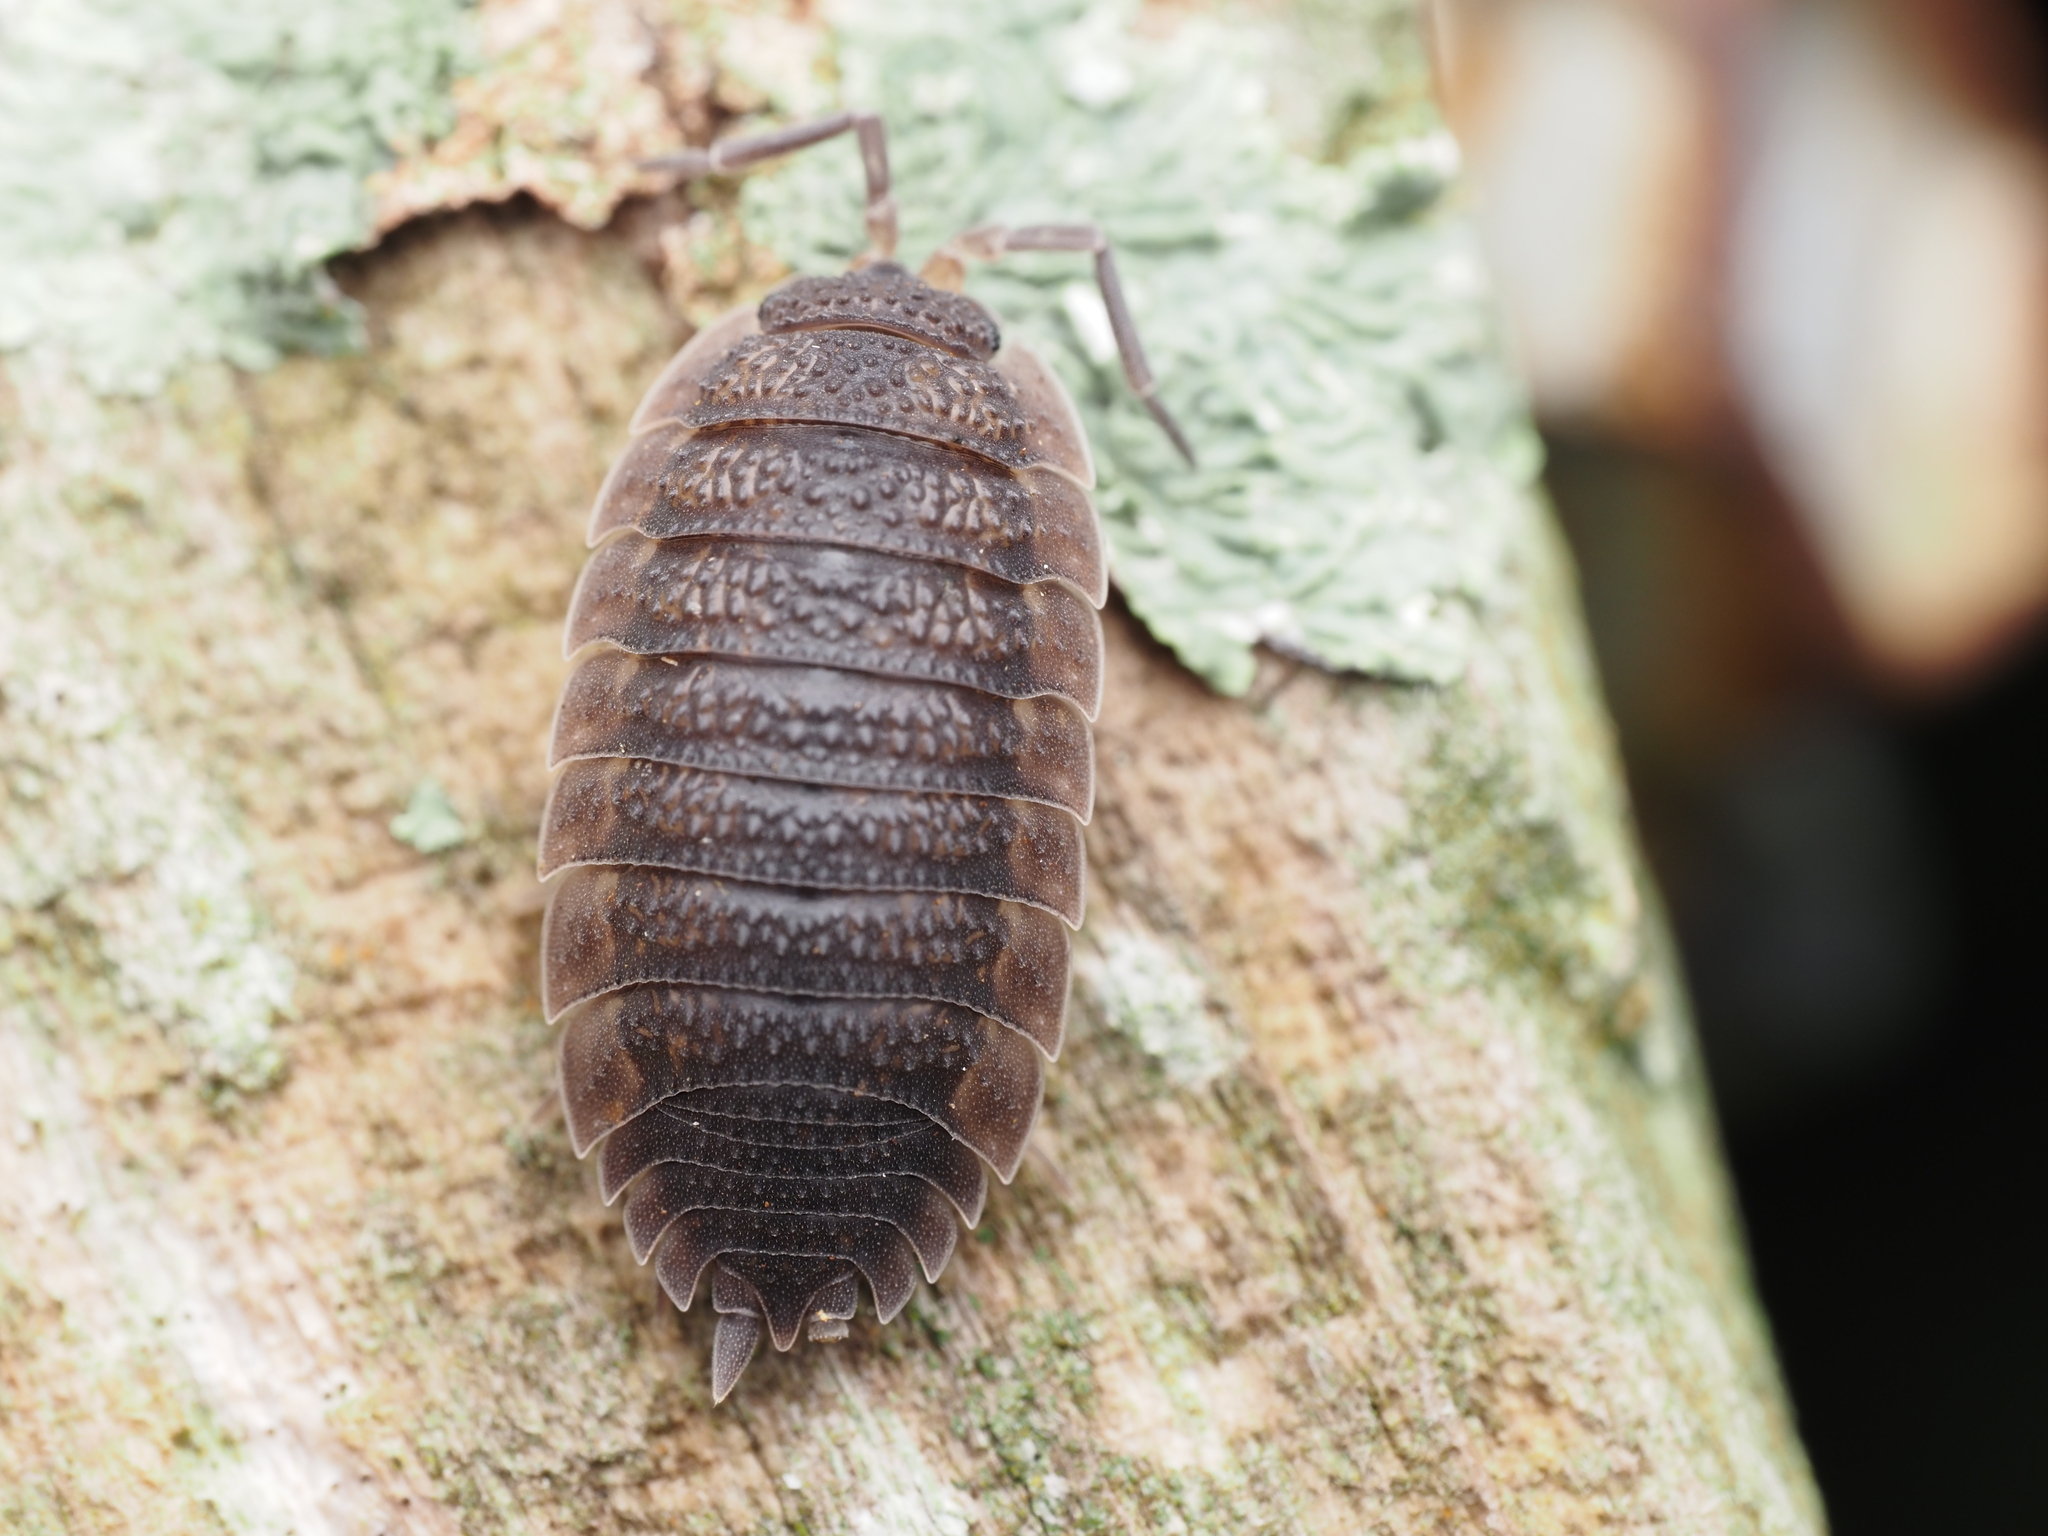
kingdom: Animalia
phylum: Arthropoda
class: Malacostraca
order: Isopoda
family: Porcellionidae
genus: Porcellio
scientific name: Porcellio scaber
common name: Common rough woodlouse
